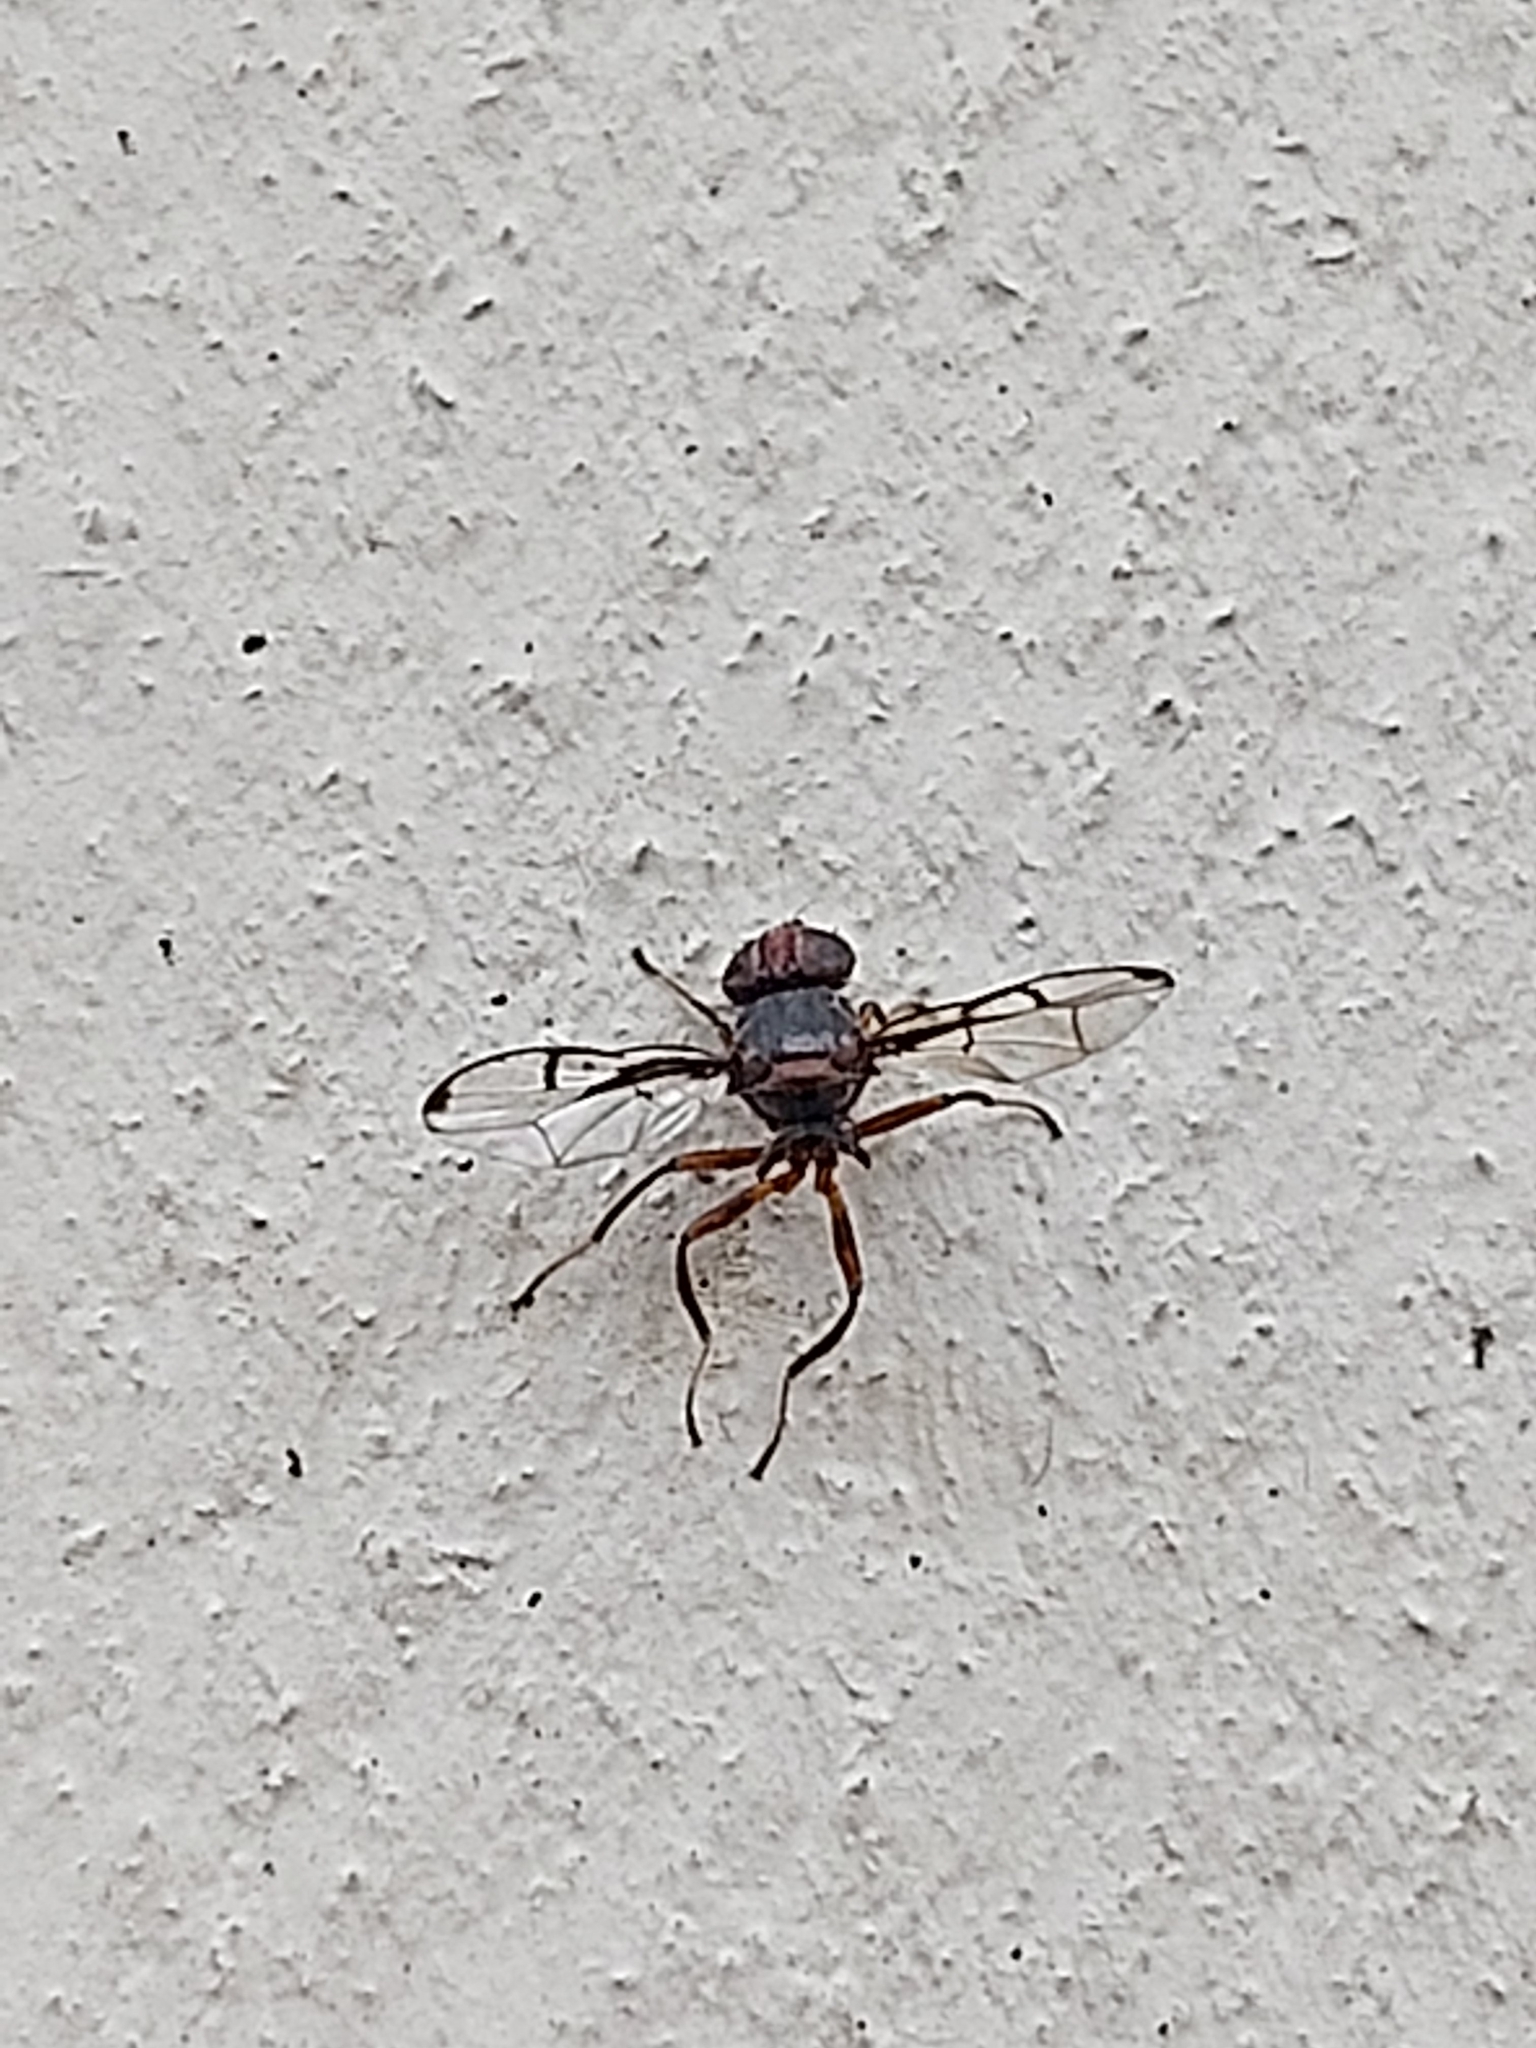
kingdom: Animalia
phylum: Arthropoda
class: Insecta
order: Diptera
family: Platystomatidae
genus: Pogonortalis
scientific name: Pogonortalis doclea
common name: Boatman fly
